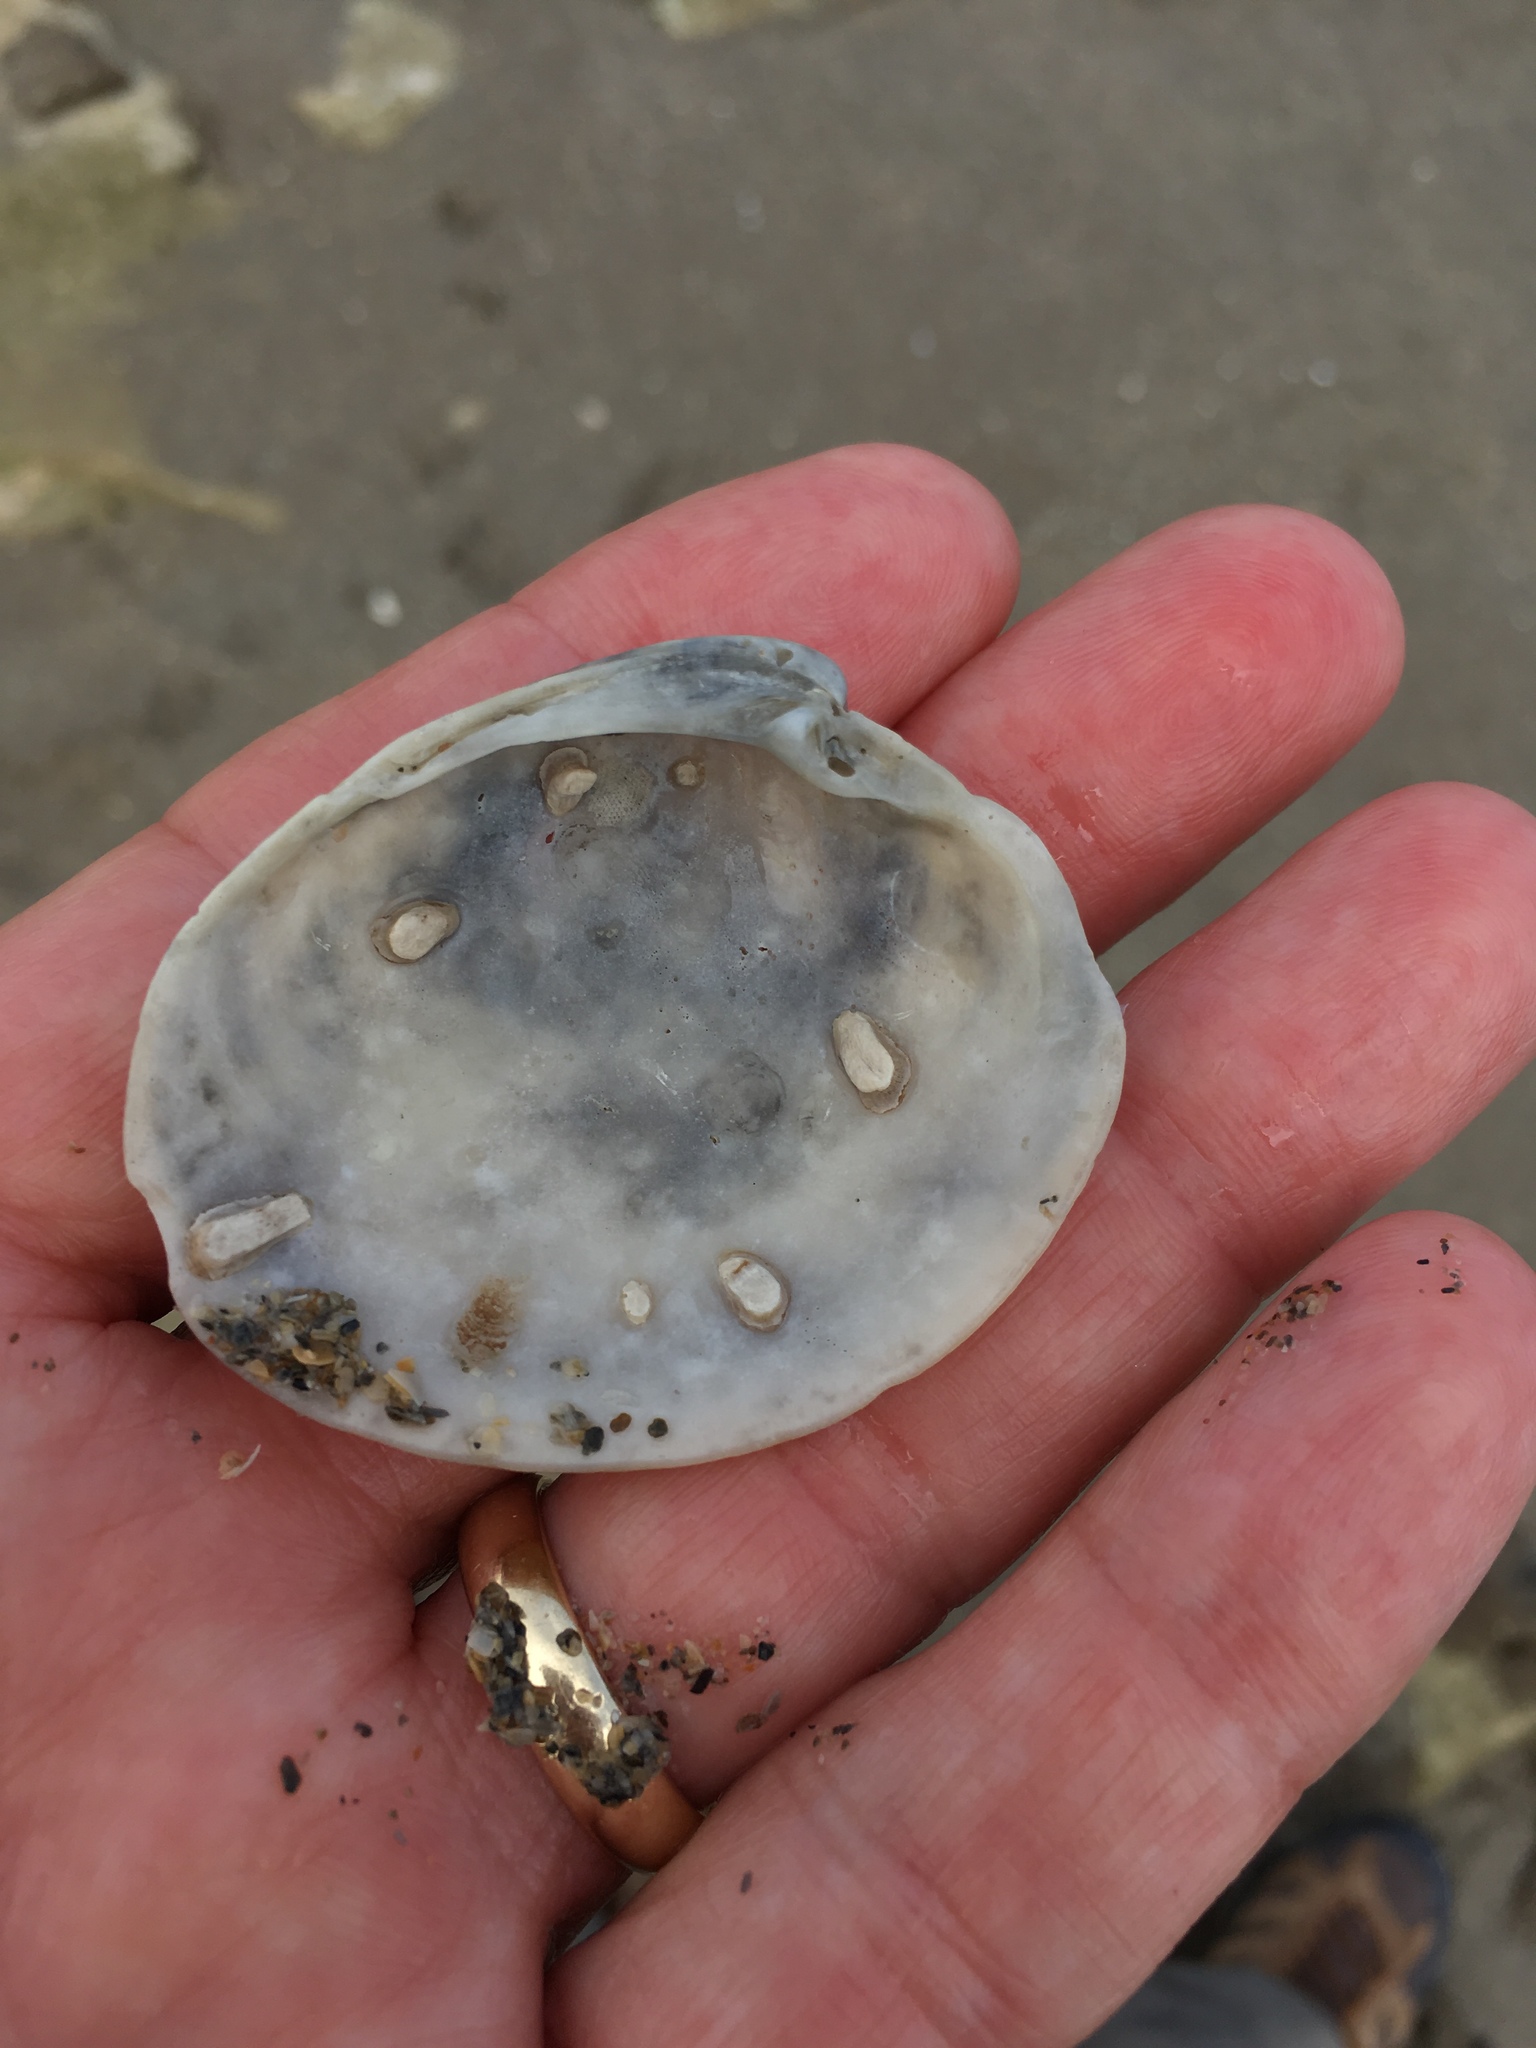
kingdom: Animalia
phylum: Mollusca
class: Bivalvia
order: Venerida
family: Veneridae
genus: Mercenaria
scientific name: Mercenaria campechiensis
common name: Südliche quahog-muschel
